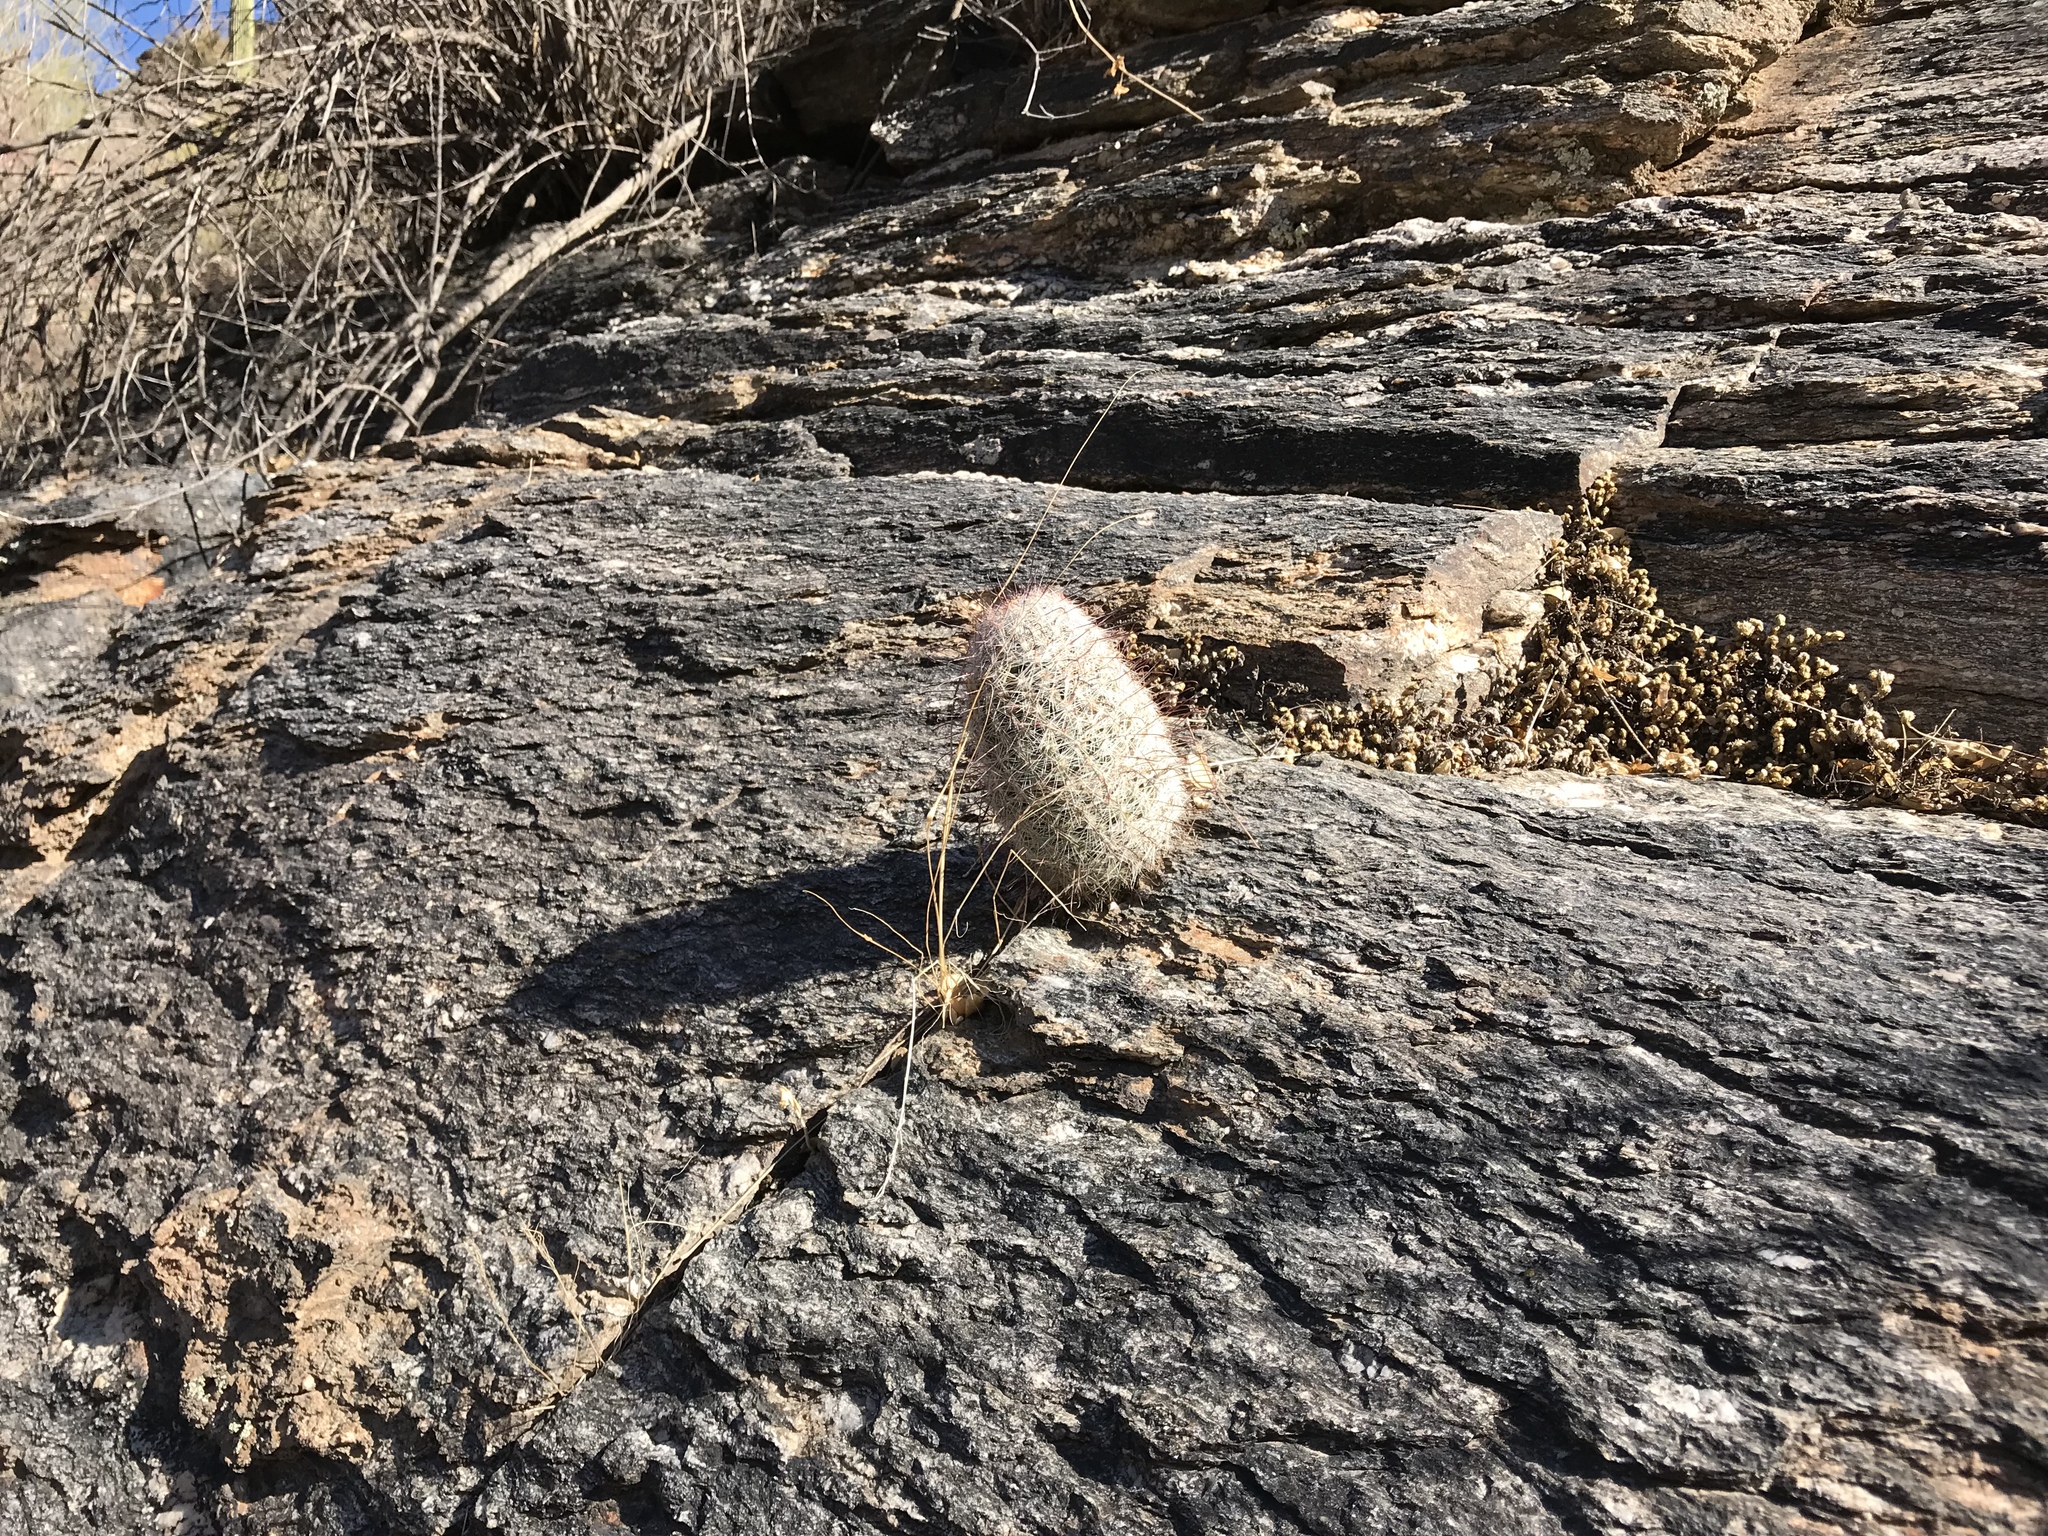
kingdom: Plantae
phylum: Tracheophyta
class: Magnoliopsida
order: Caryophyllales
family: Cactaceae
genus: Cochemiea
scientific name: Cochemiea grahamii
